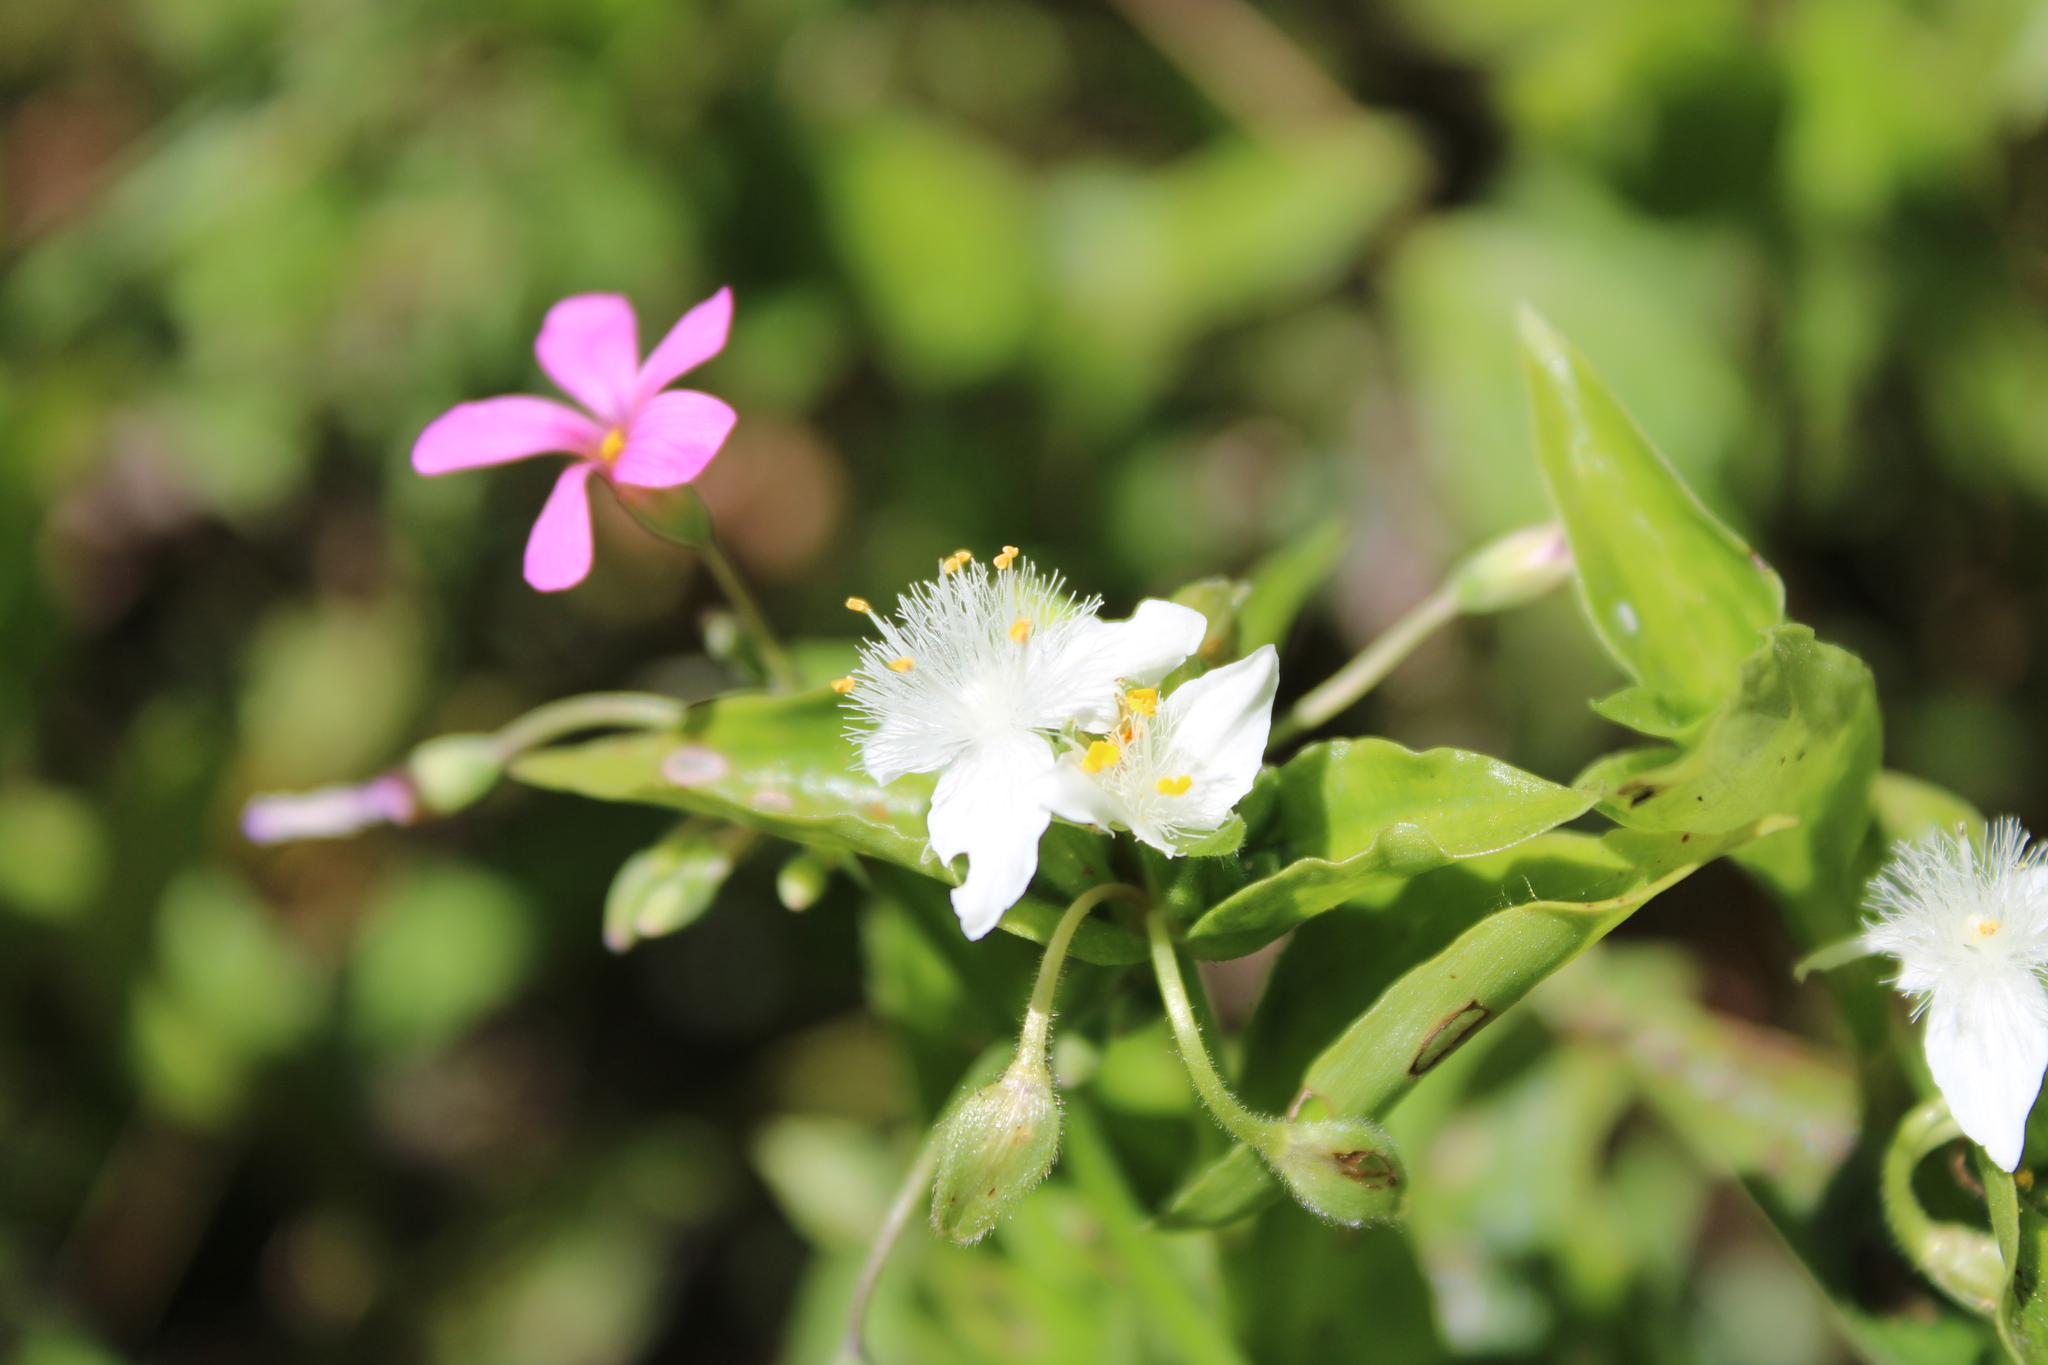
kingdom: Plantae
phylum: Tracheophyta
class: Liliopsida
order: Commelinales
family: Commelinaceae
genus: Tradescantia
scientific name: Tradescantia fluminensis
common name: Wandering-jew
